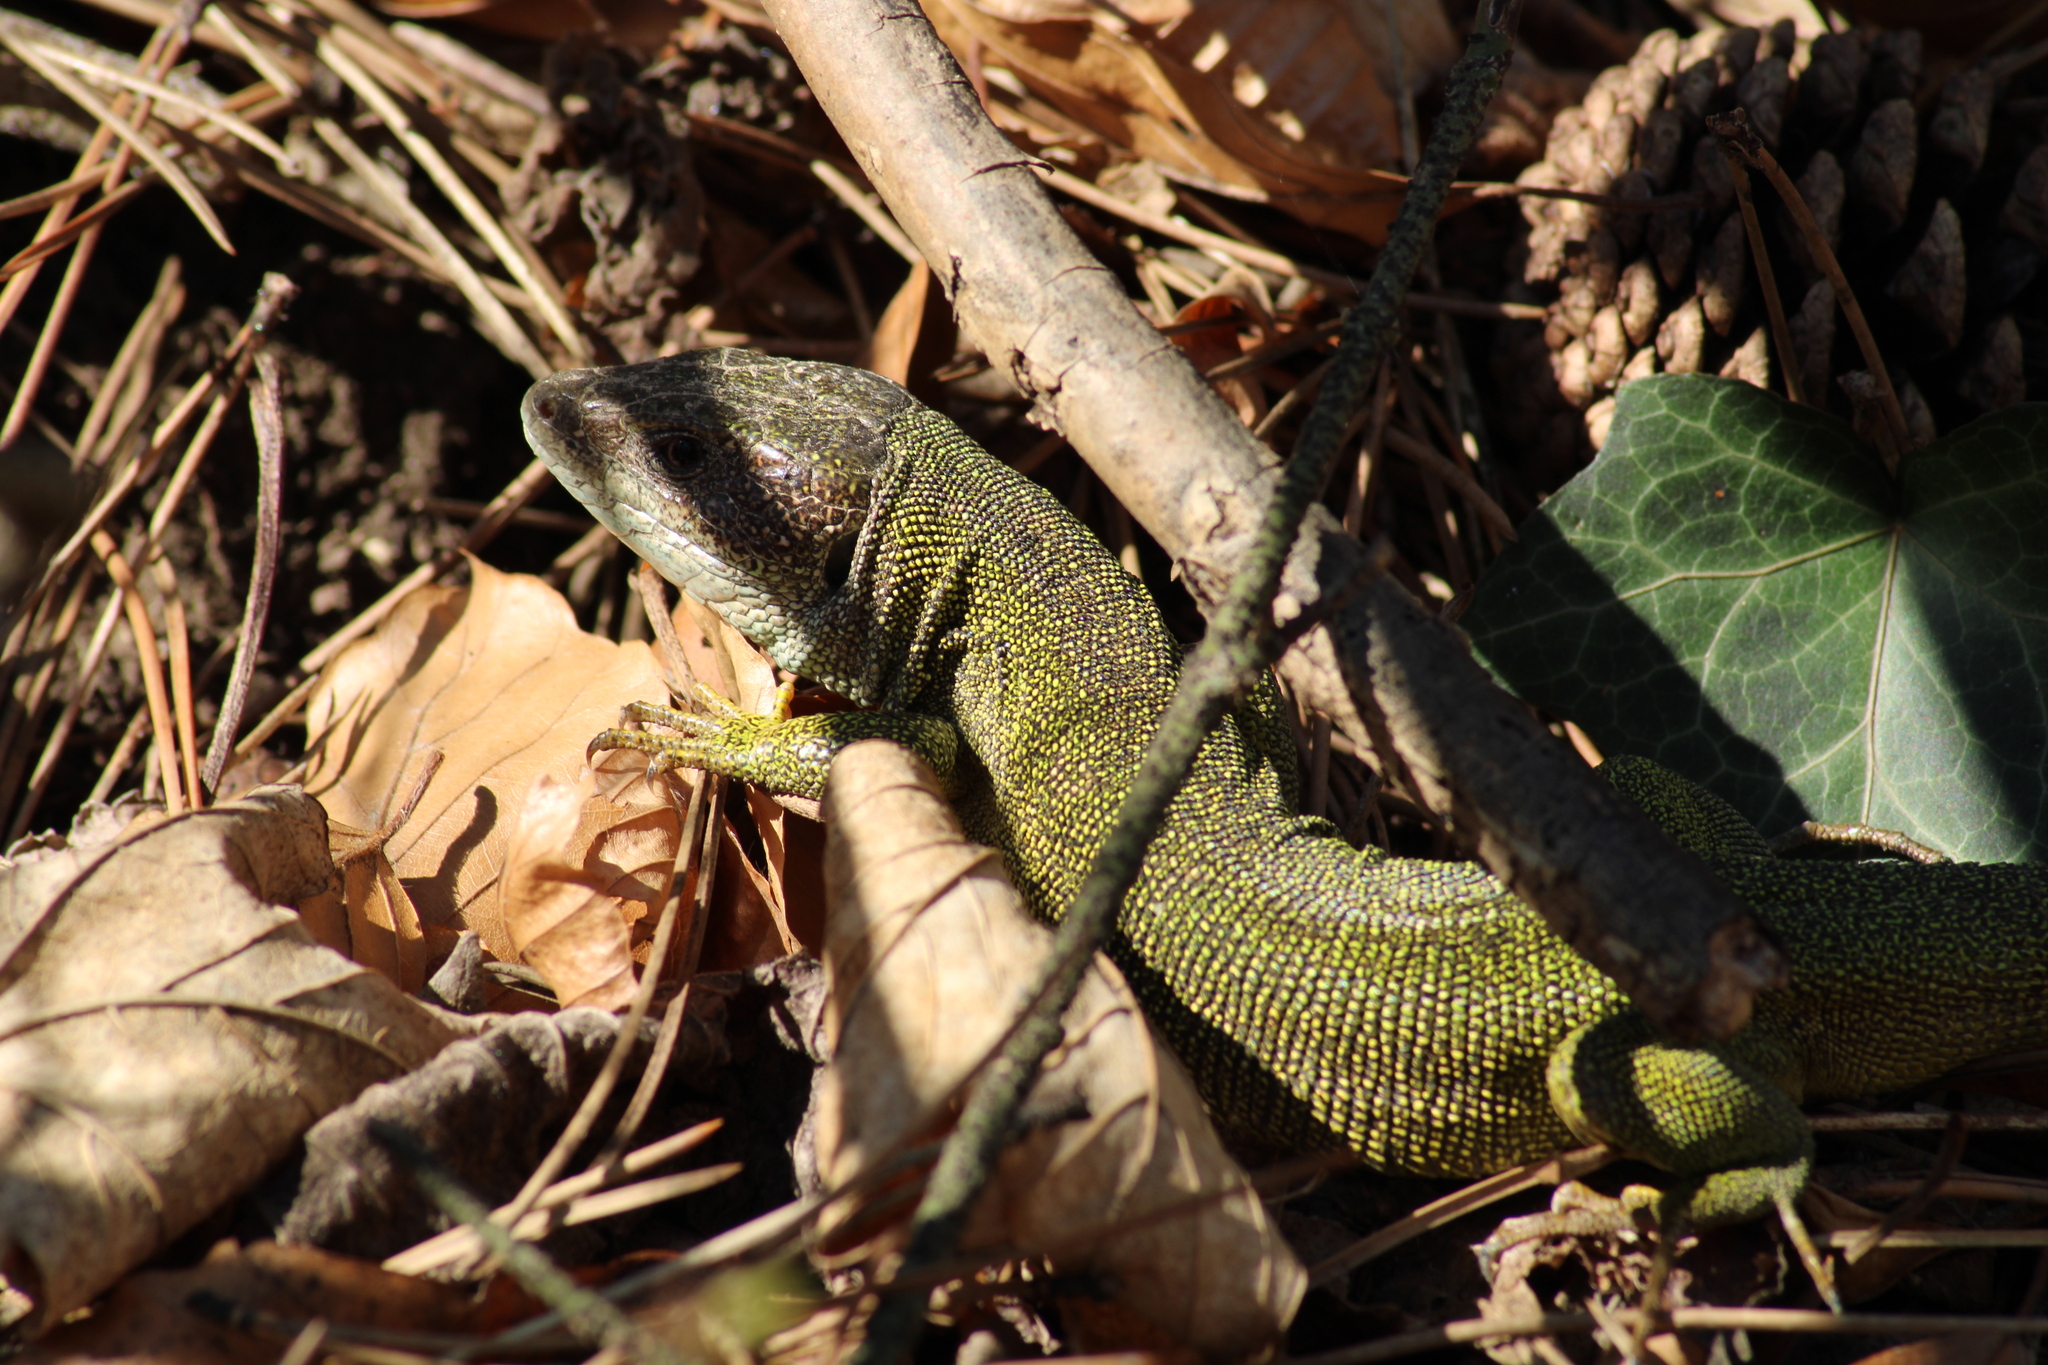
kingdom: Animalia
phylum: Chordata
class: Squamata
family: Lacertidae
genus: Lacerta
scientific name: Lacerta viridis
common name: European green lizard
